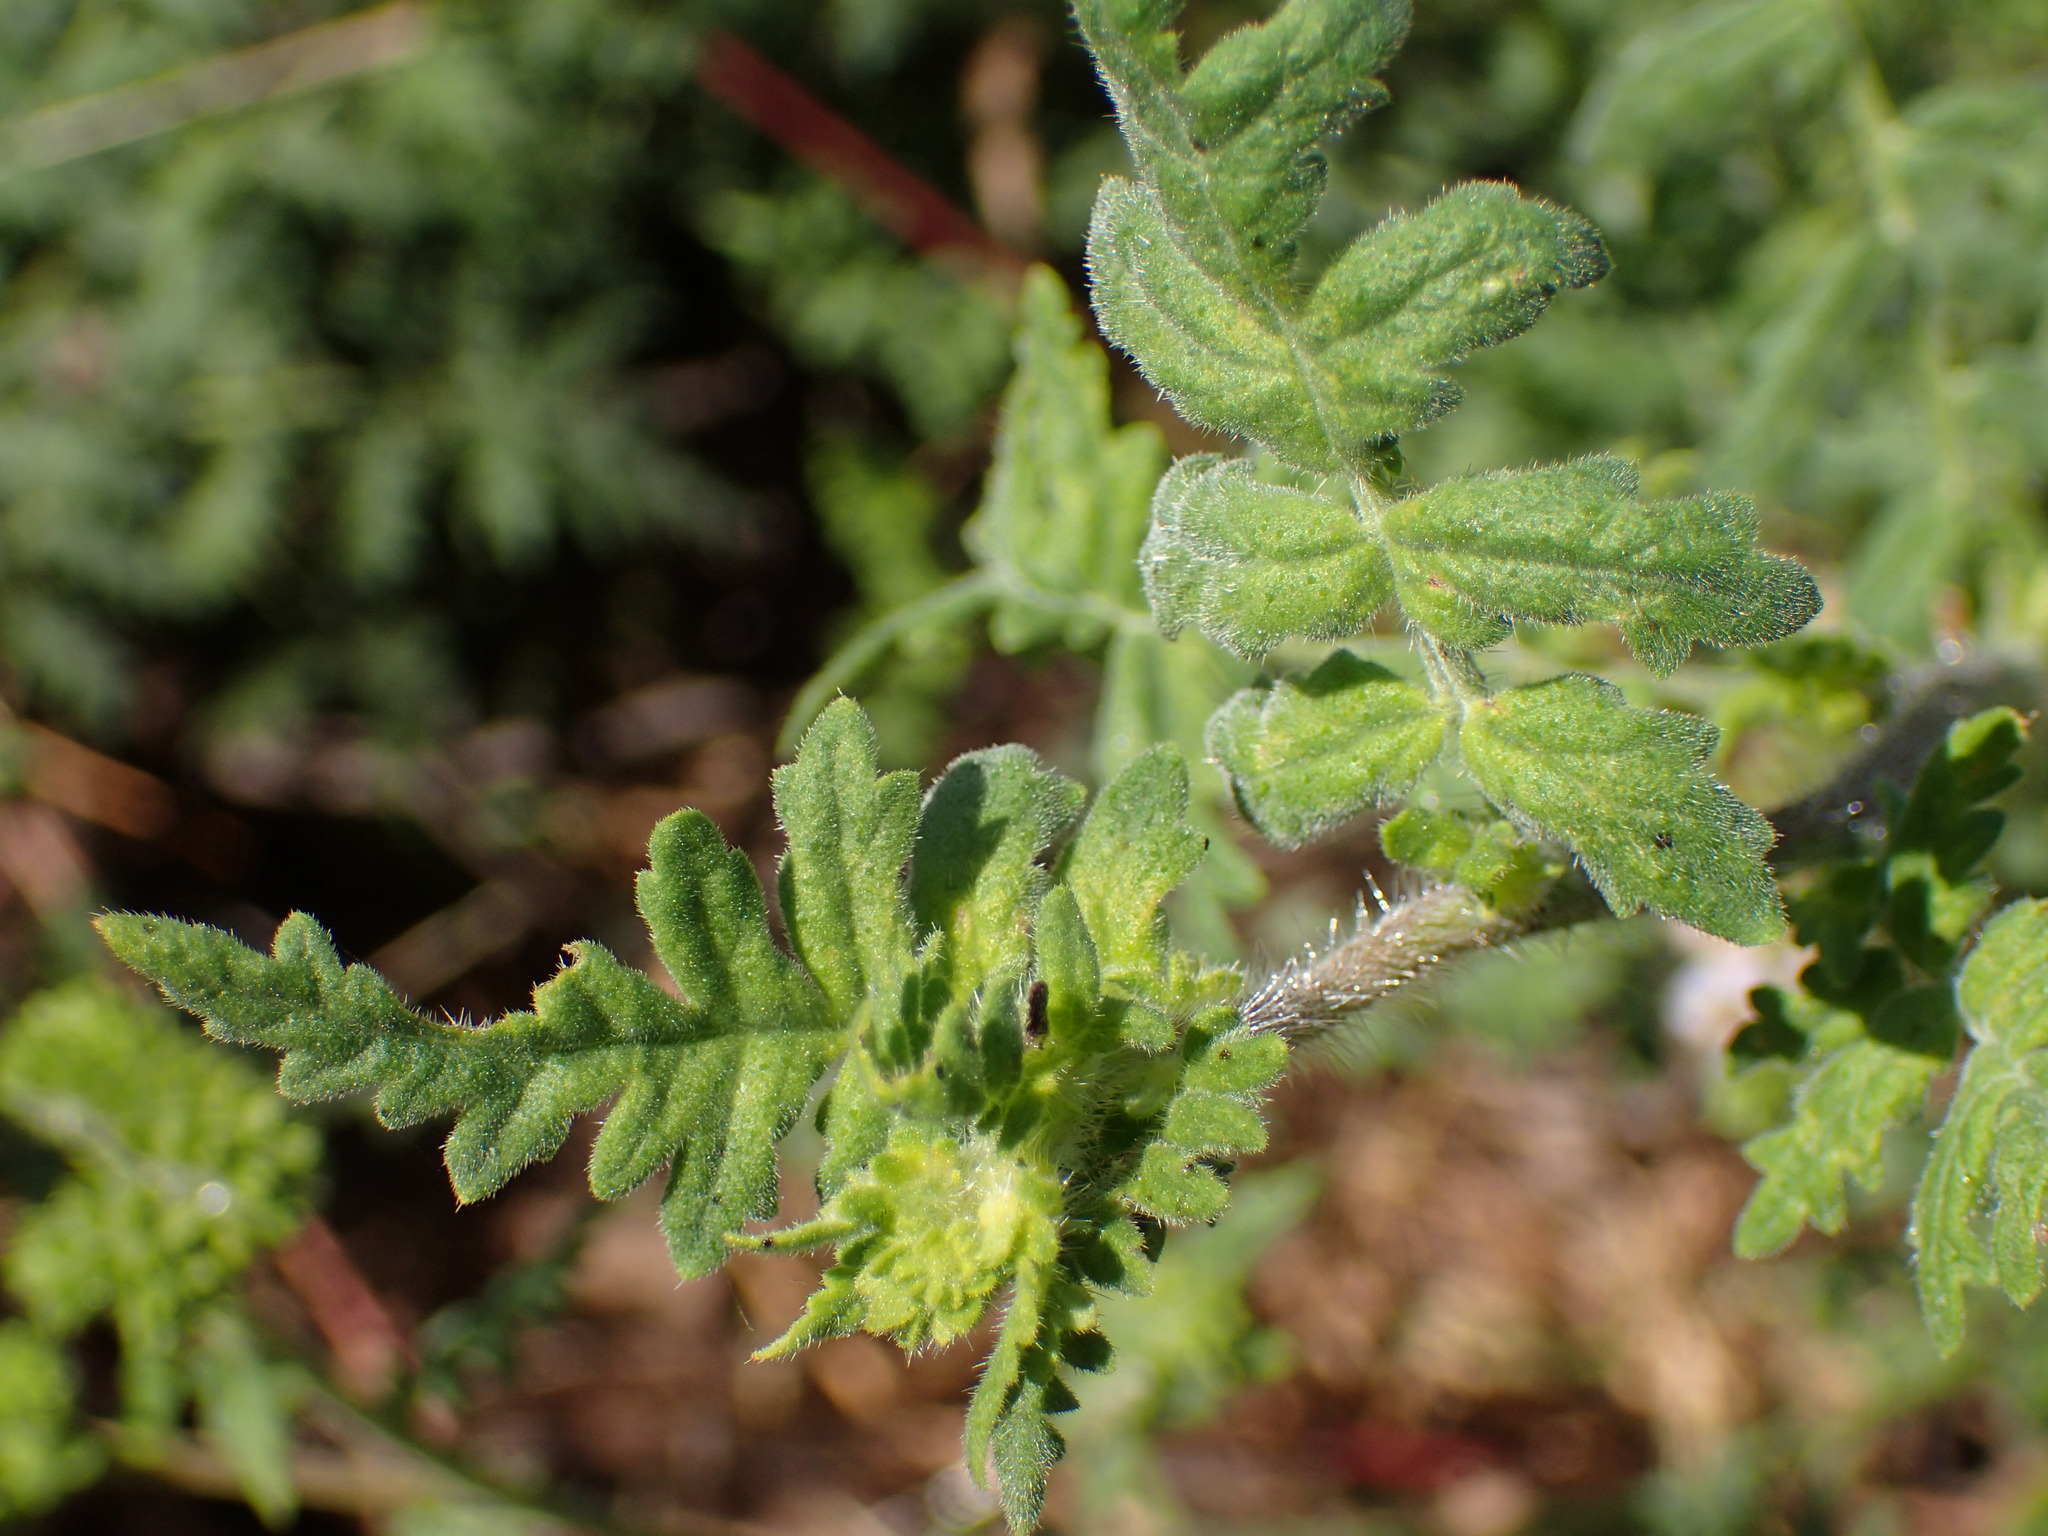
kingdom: Plantae
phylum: Tracheophyta
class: Magnoliopsida
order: Boraginales
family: Hydrophyllaceae
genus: Phacelia
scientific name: Phacelia ramosissima
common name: Branching phacelia
